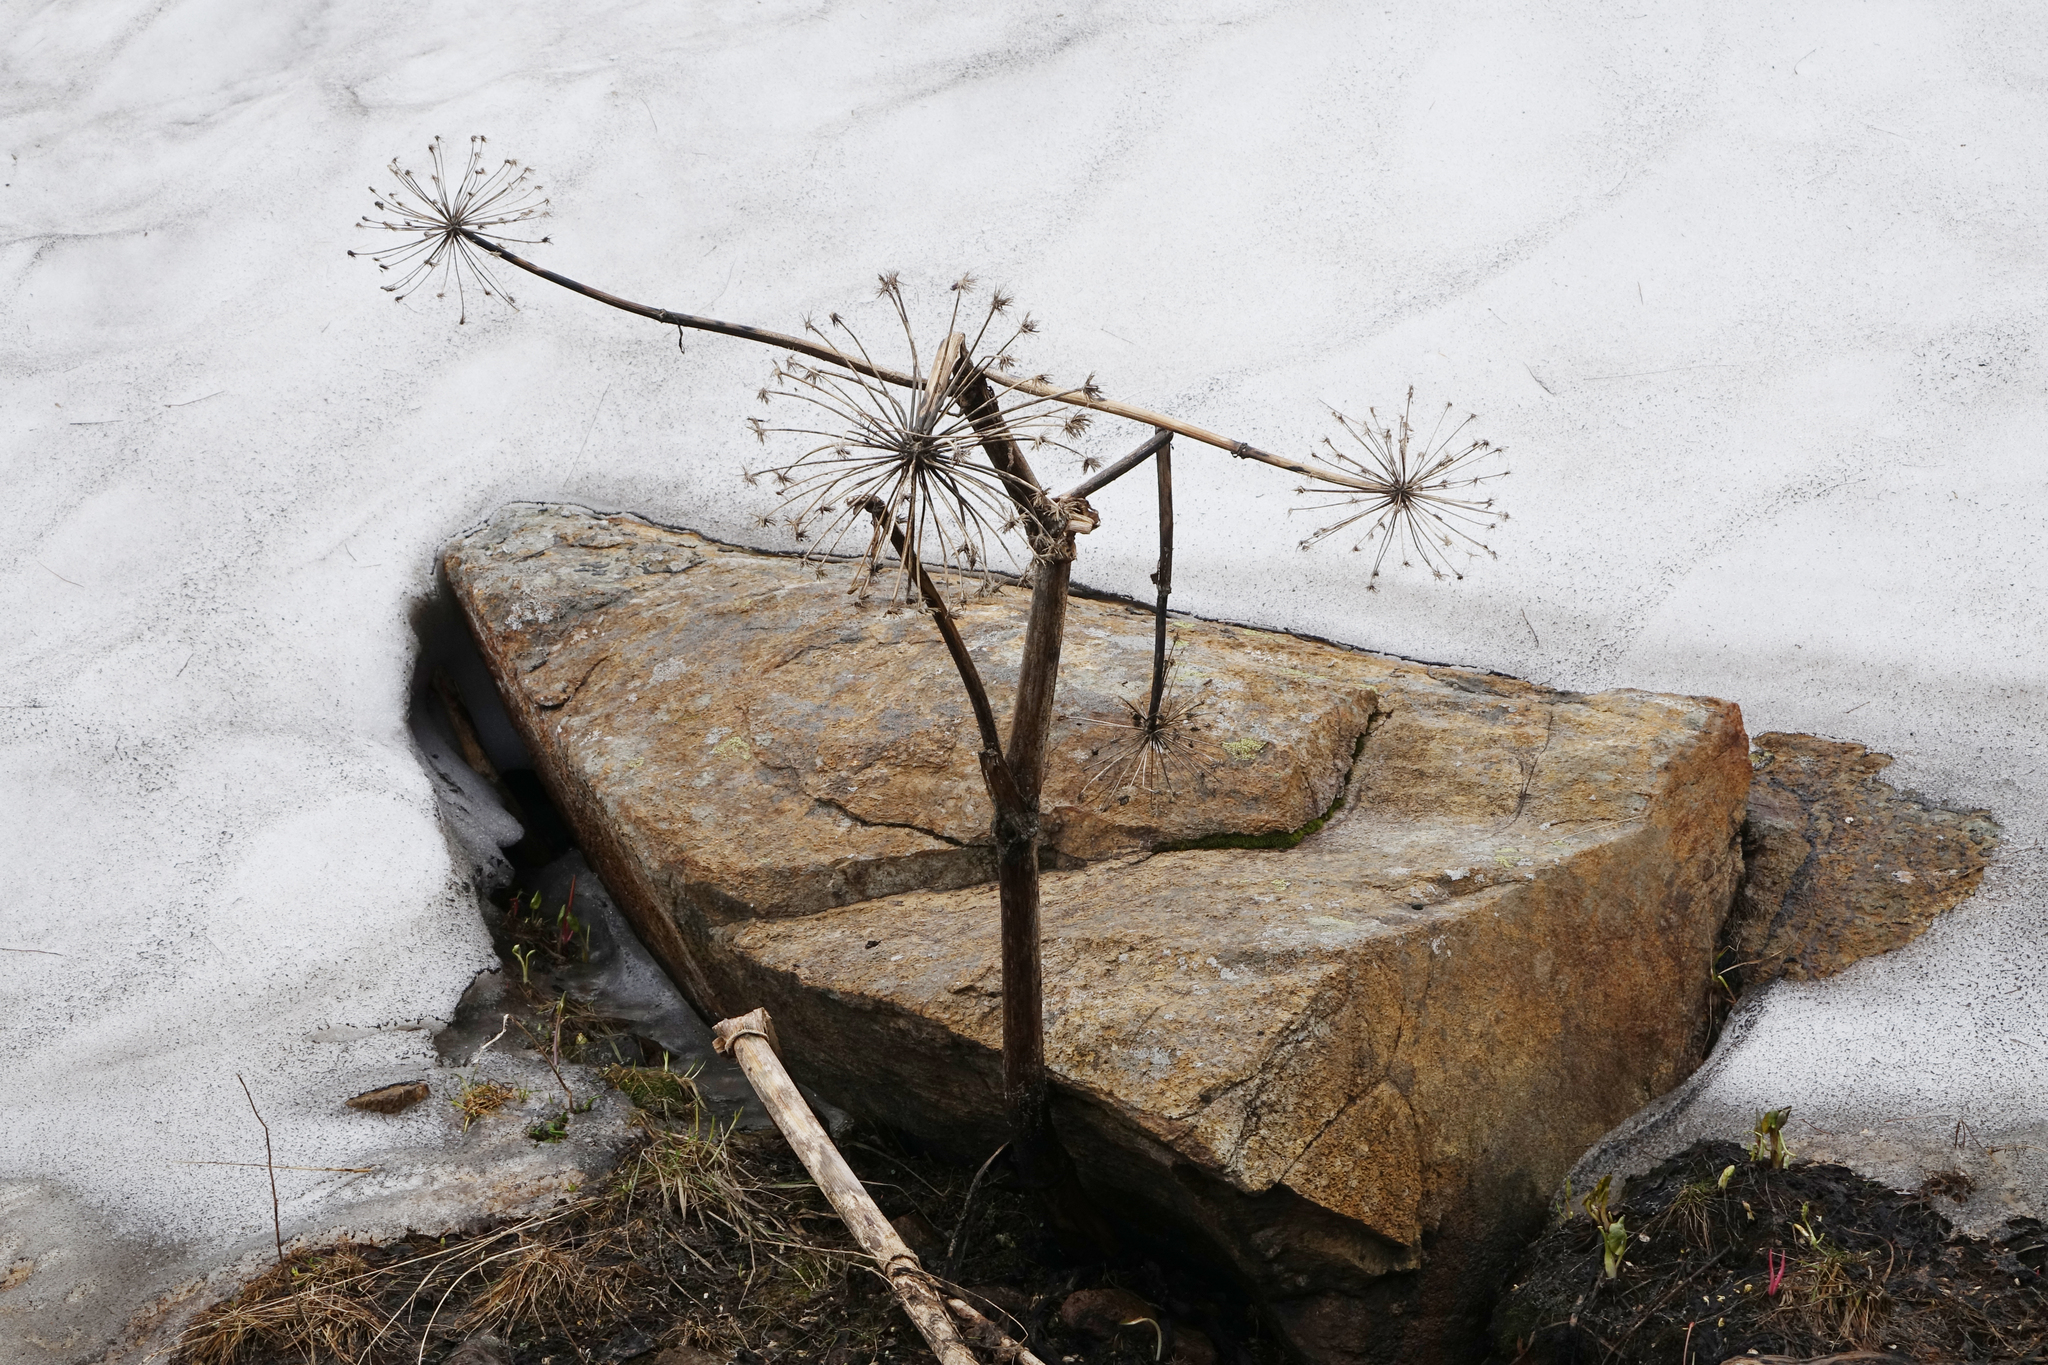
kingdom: Plantae
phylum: Tracheophyta
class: Magnoliopsida
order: Apiales
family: Apiaceae
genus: Angelica
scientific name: Angelica decurrens
